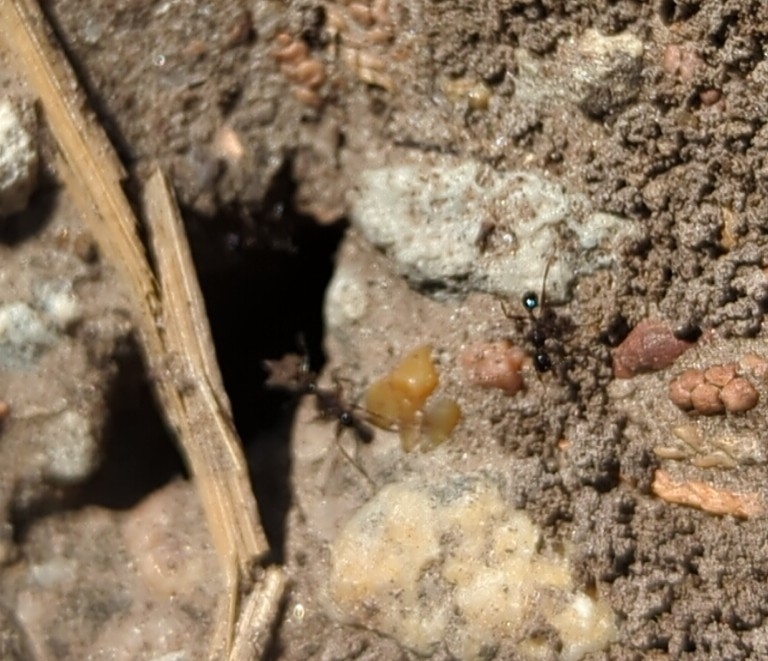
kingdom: Animalia
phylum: Arthropoda
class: Insecta
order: Hymenoptera
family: Formicidae
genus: Pheidole
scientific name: Pheidole obscurithorax
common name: Obscure big-headed ant
